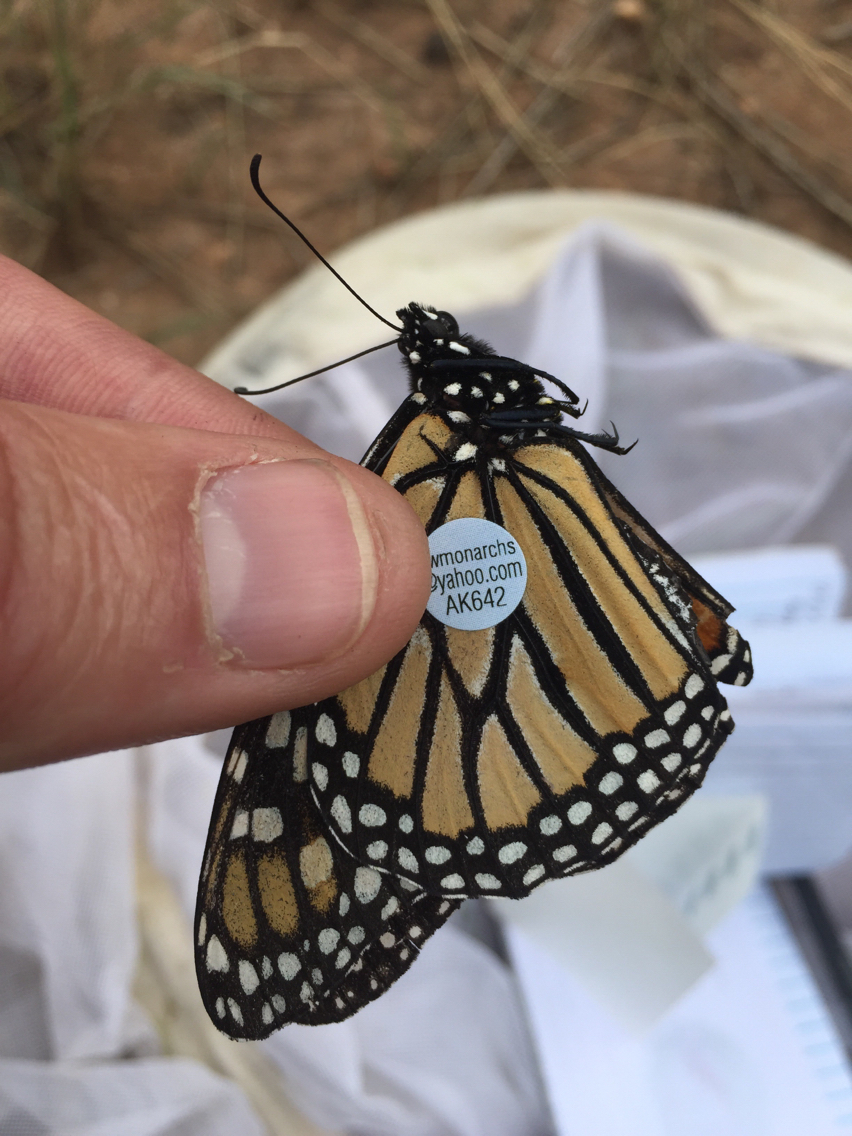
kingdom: Animalia
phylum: Arthropoda
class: Insecta
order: Lepidoptera
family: Nymphalidae
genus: Danaus
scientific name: Danaus plexippus
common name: Monarch
